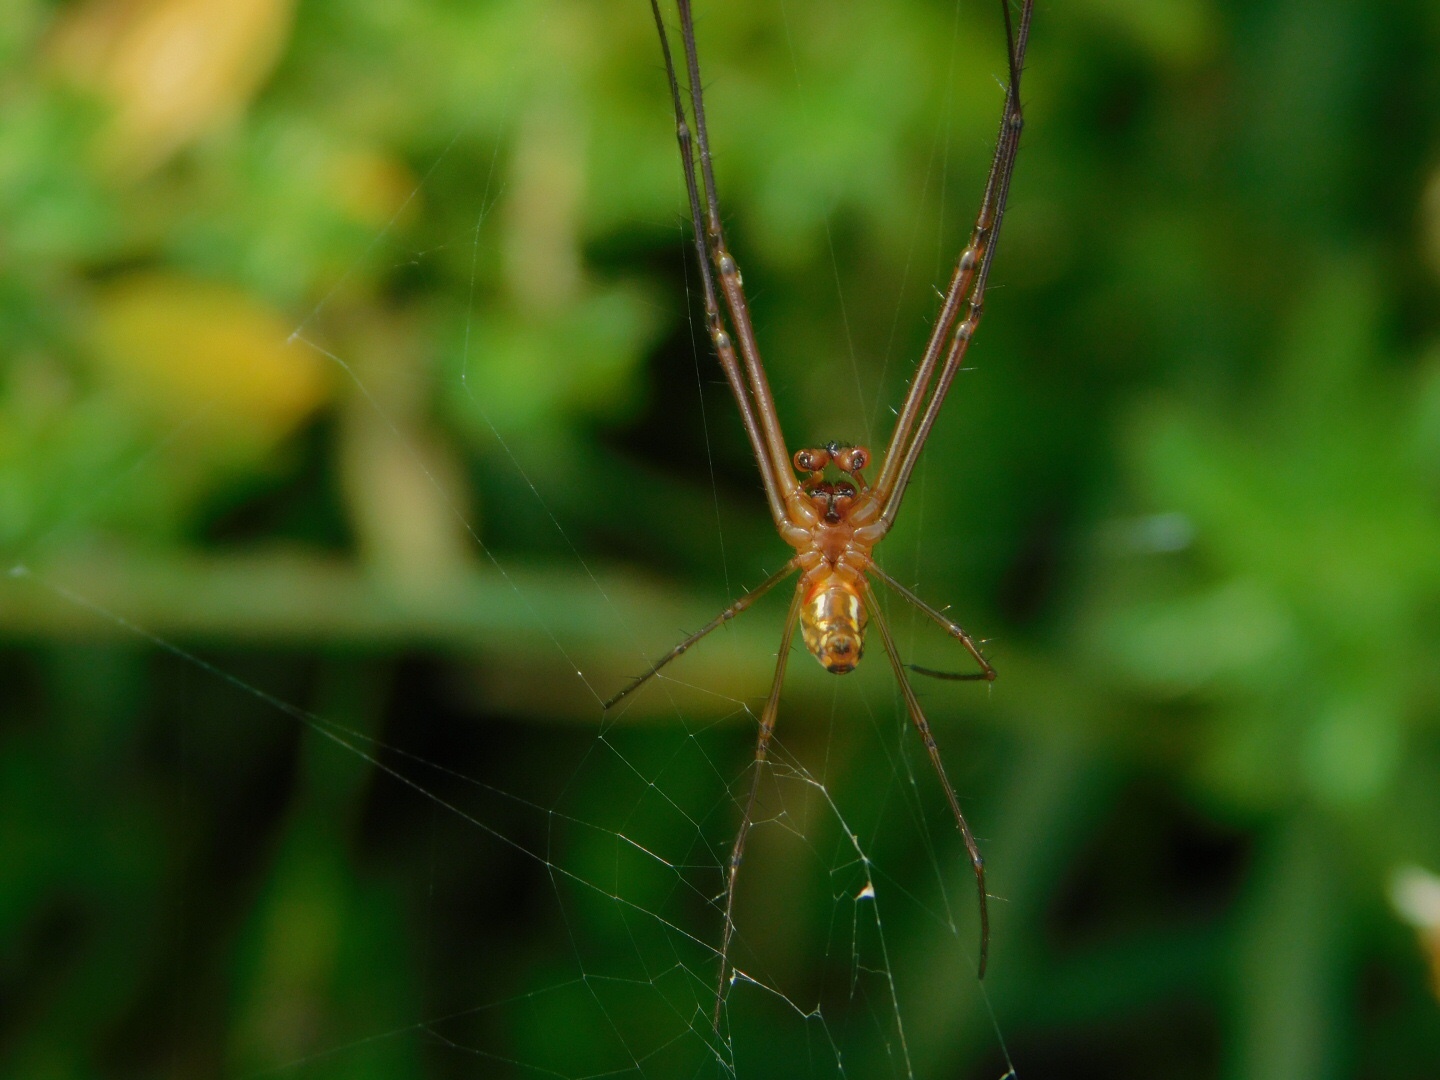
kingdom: Animalia
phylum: Arthropoda
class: Arachnida
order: Araneae
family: Tetragnathidae
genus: Leucauge
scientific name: Leucauge argyra
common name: Longjawed orb weavers
